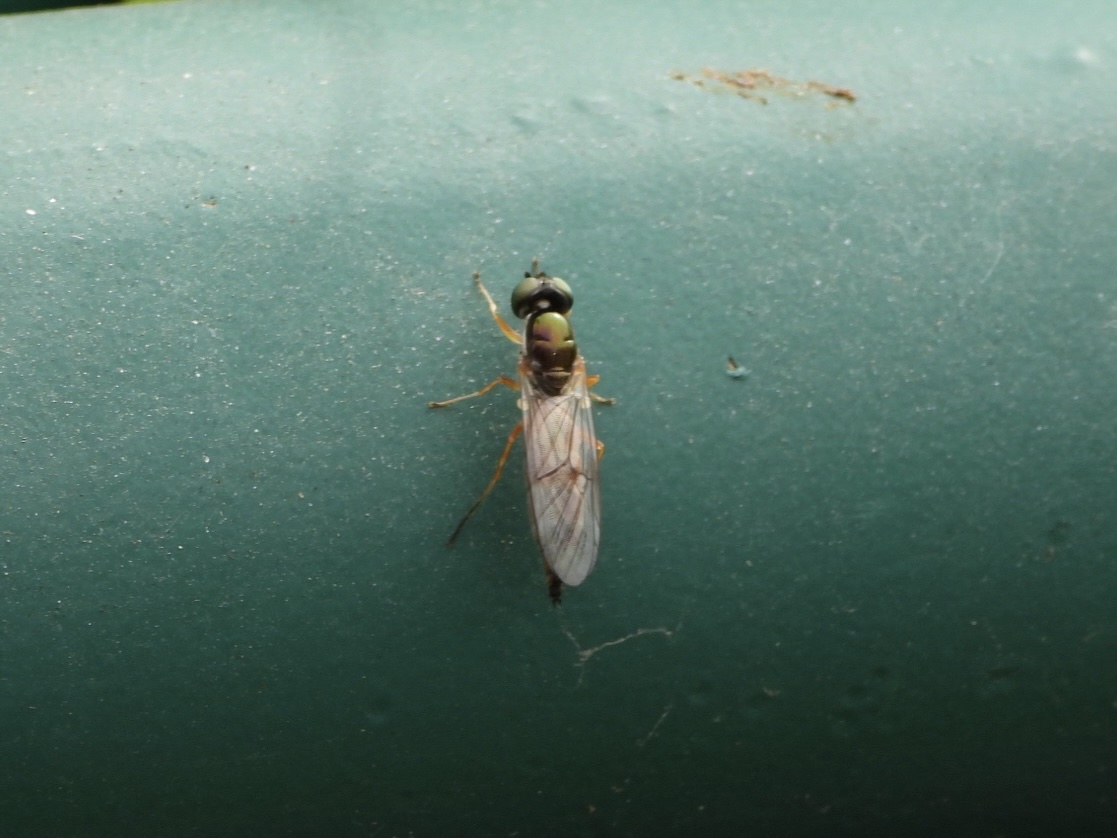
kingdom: Animalia
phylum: Arthropoda
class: Insecta
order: Diptera
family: Stratiomyidae
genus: Sargus
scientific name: Sargus bipunctatus
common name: Twin-spot centurion
